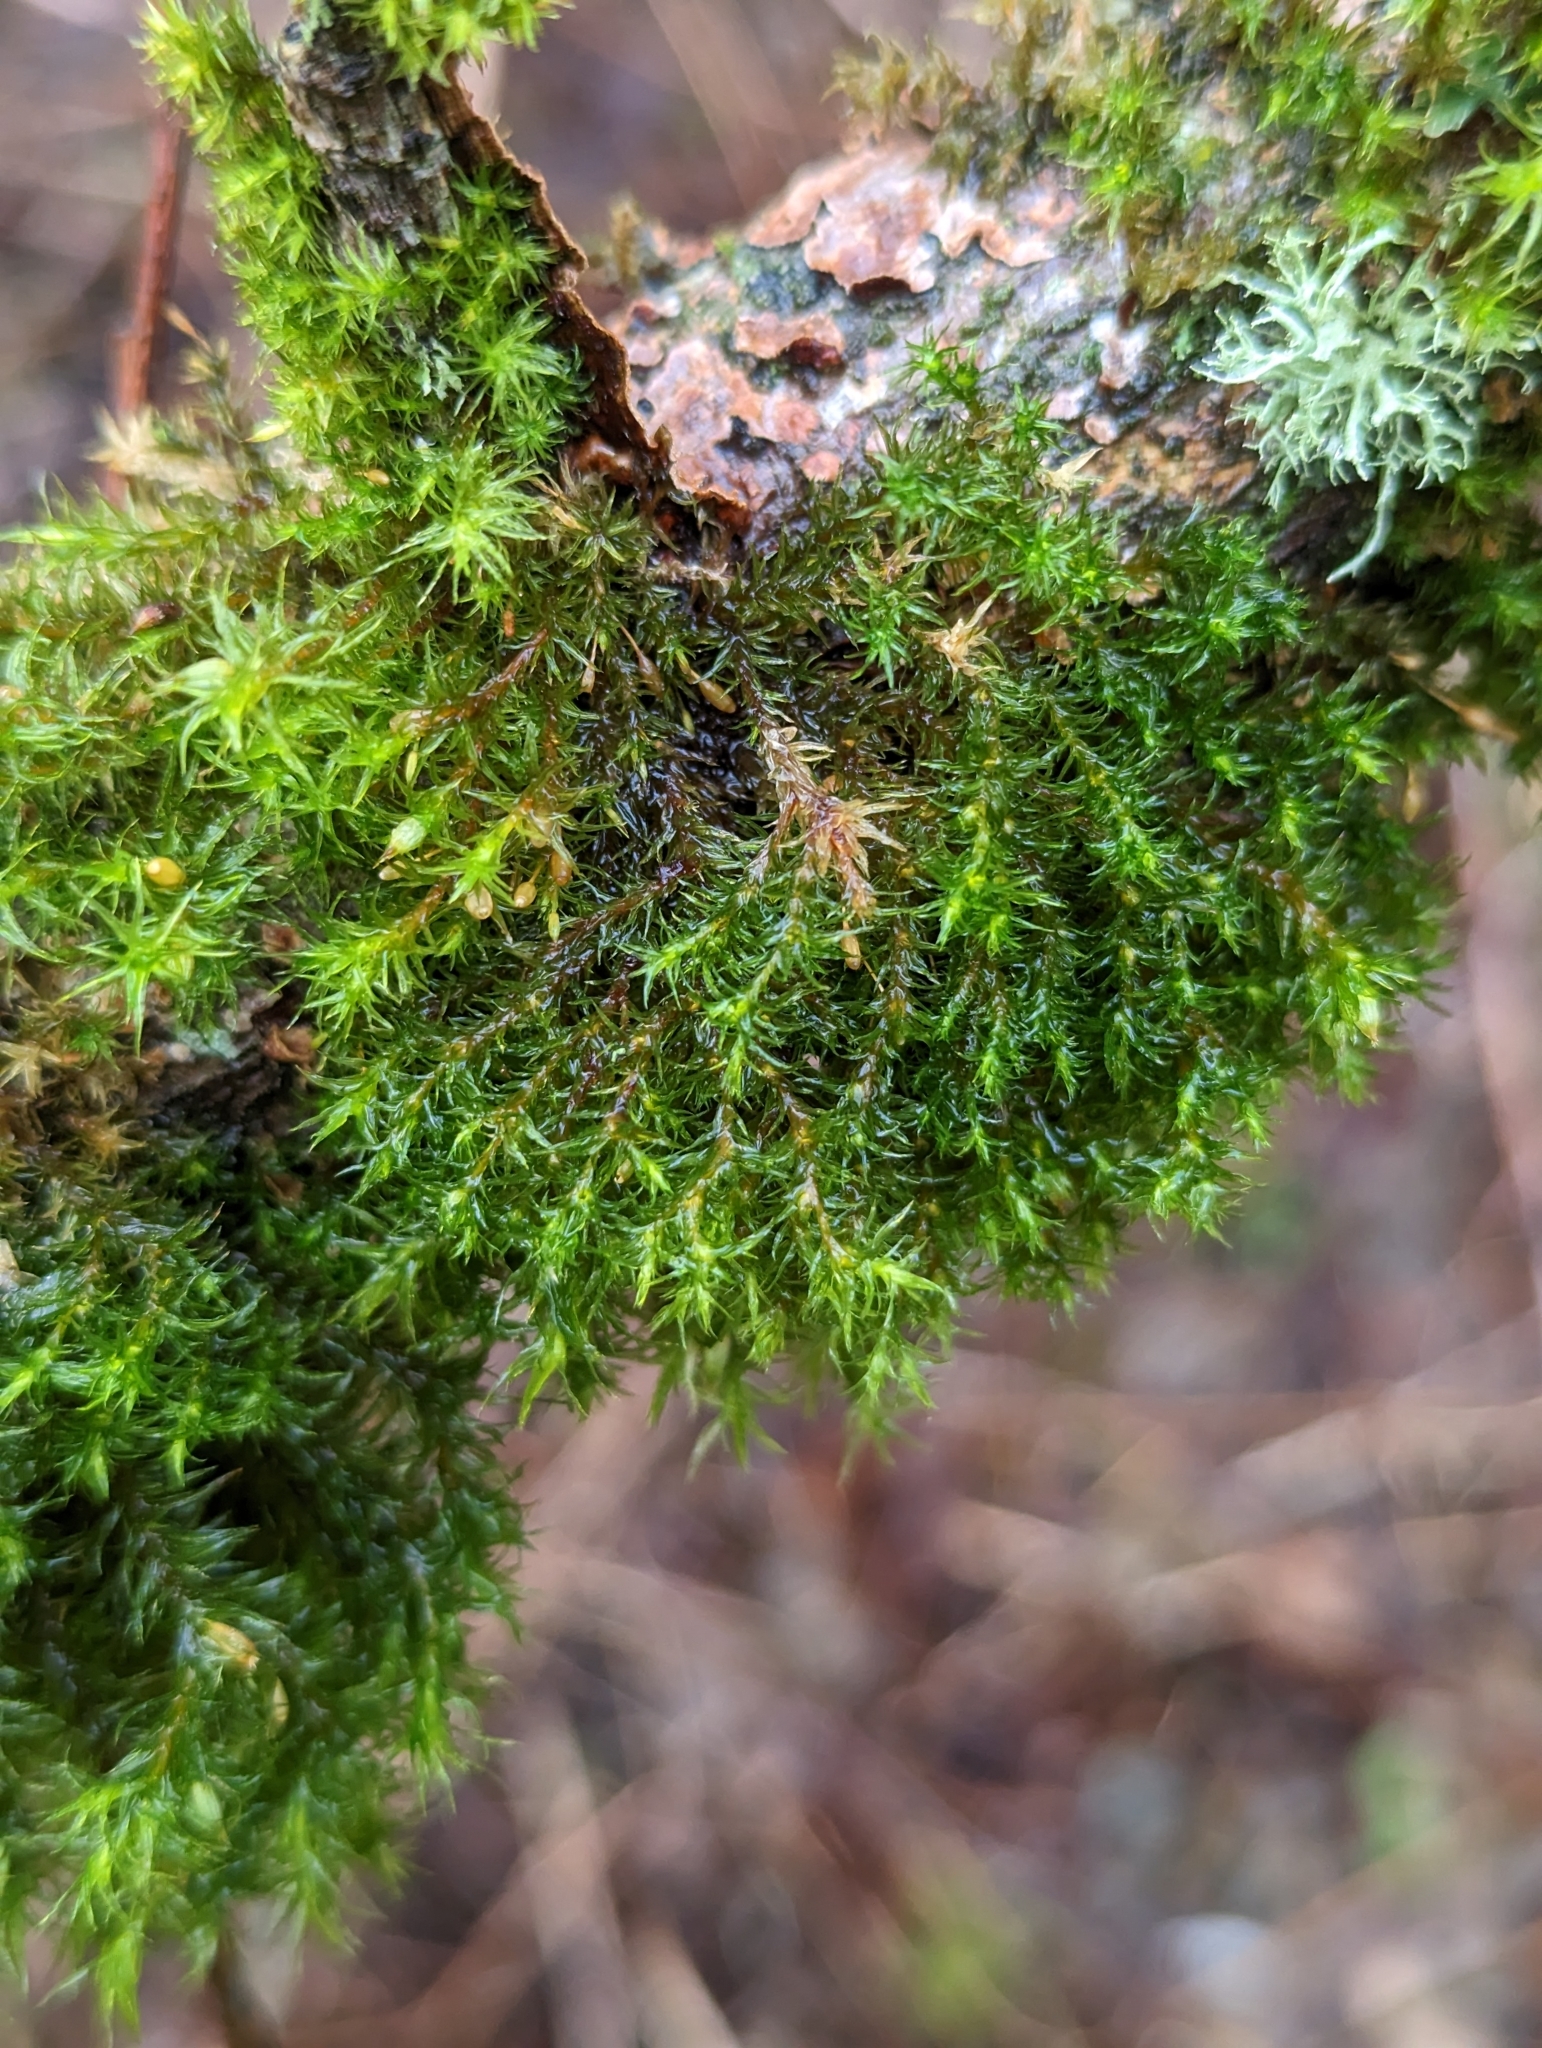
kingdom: Plantae
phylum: Bryophyta
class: Bryopsida
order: Orthotrichales
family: Orthotrichaceae
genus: Pulvigera
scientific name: Pulvigera pringlei
